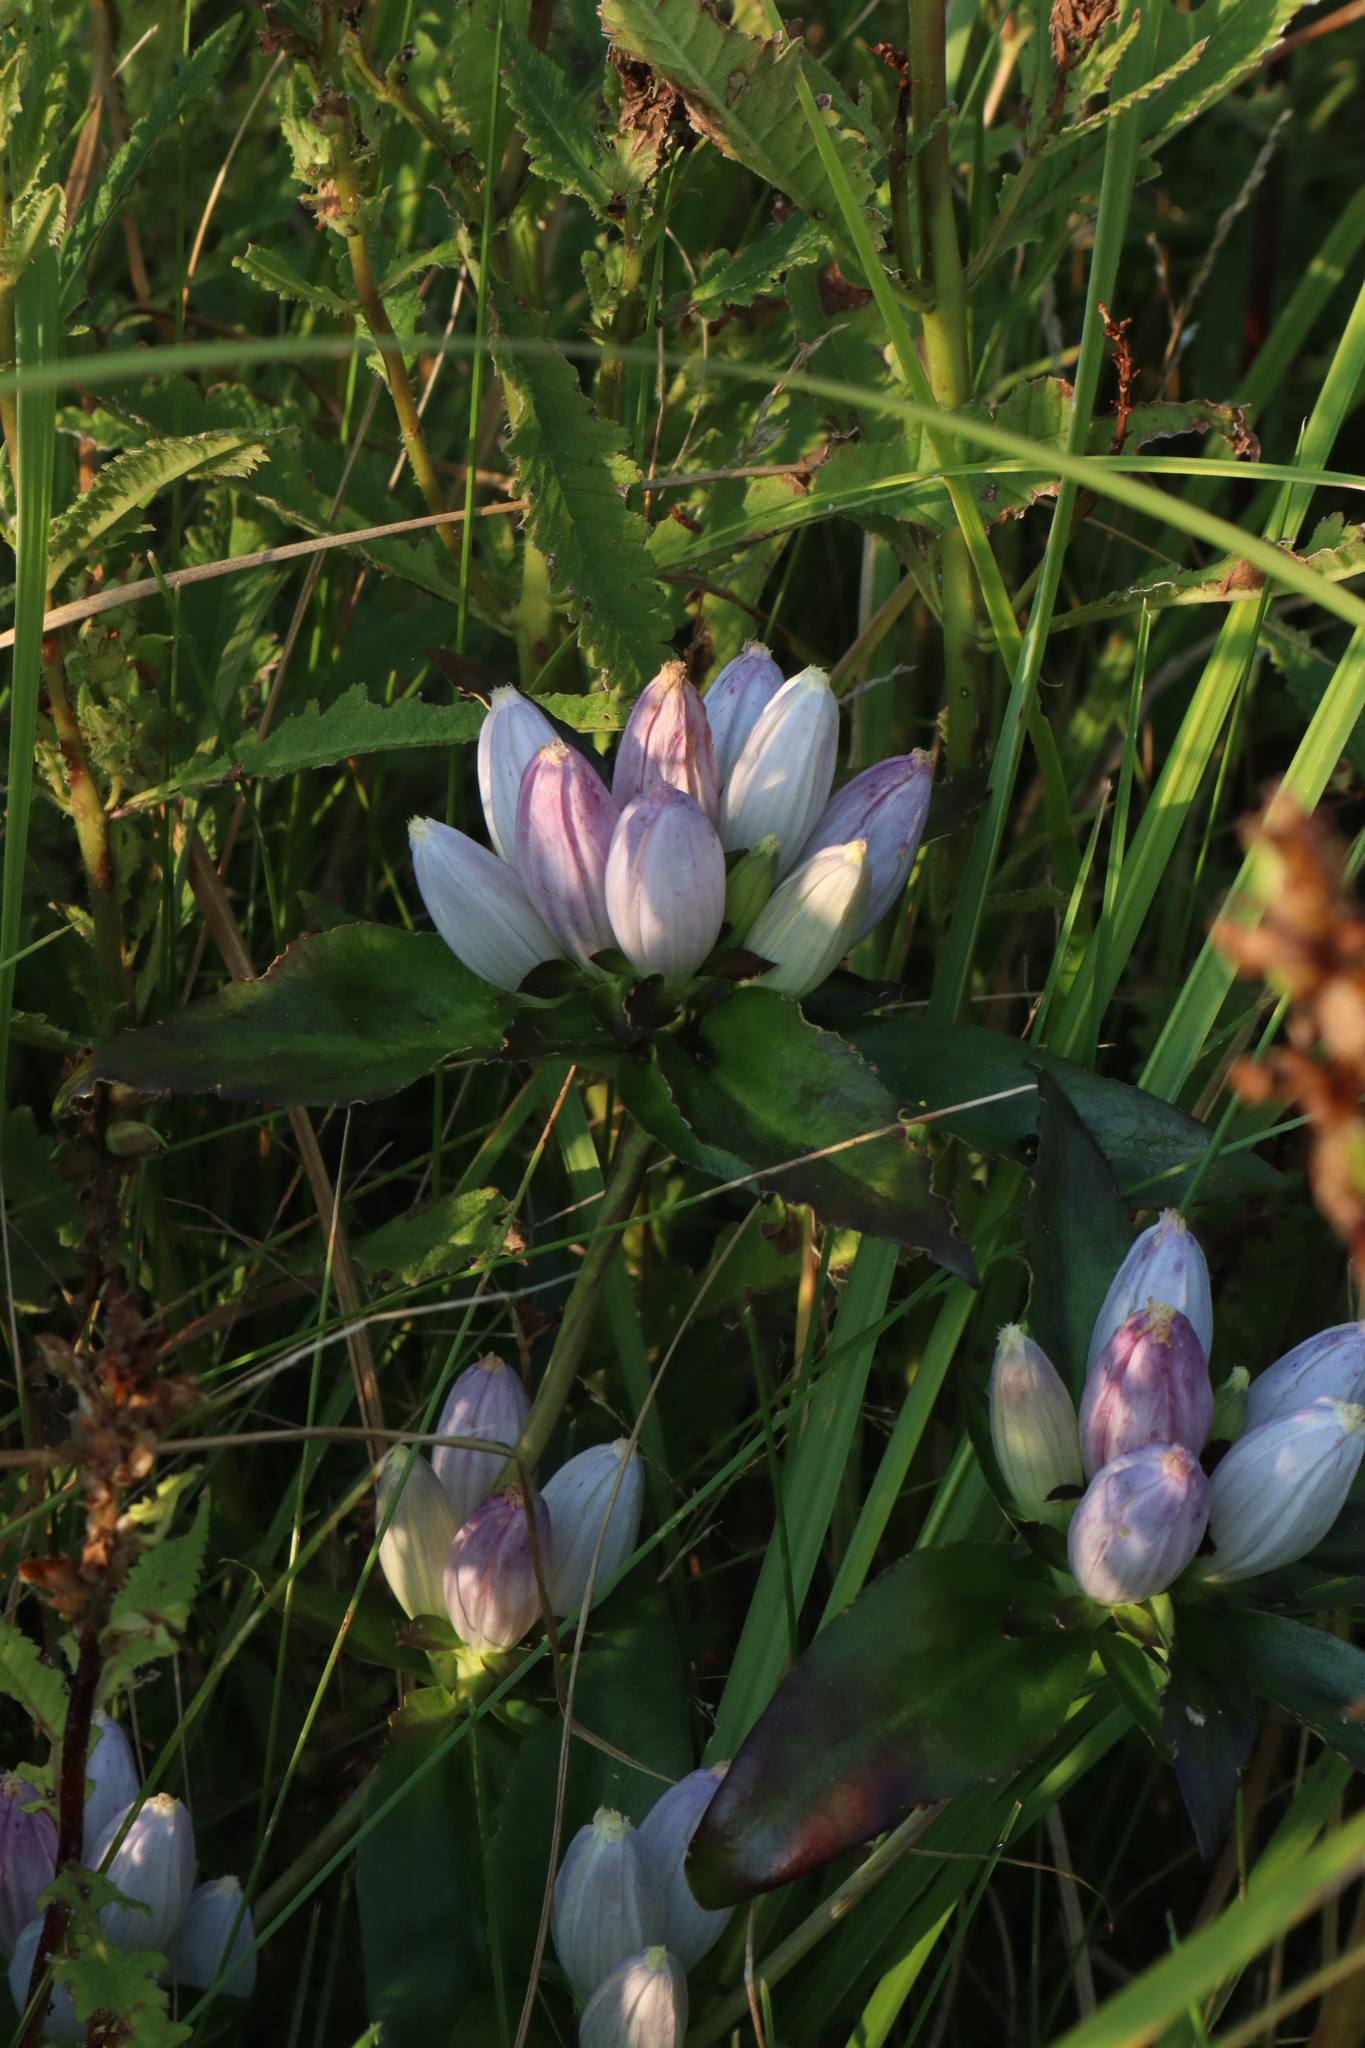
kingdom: Plantae
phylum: Tracheophyta
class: Magnoliopsida
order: Gentianales
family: Gentianaceae
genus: Gentiana
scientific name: Gentiana andrewsii
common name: Bottle gentian
